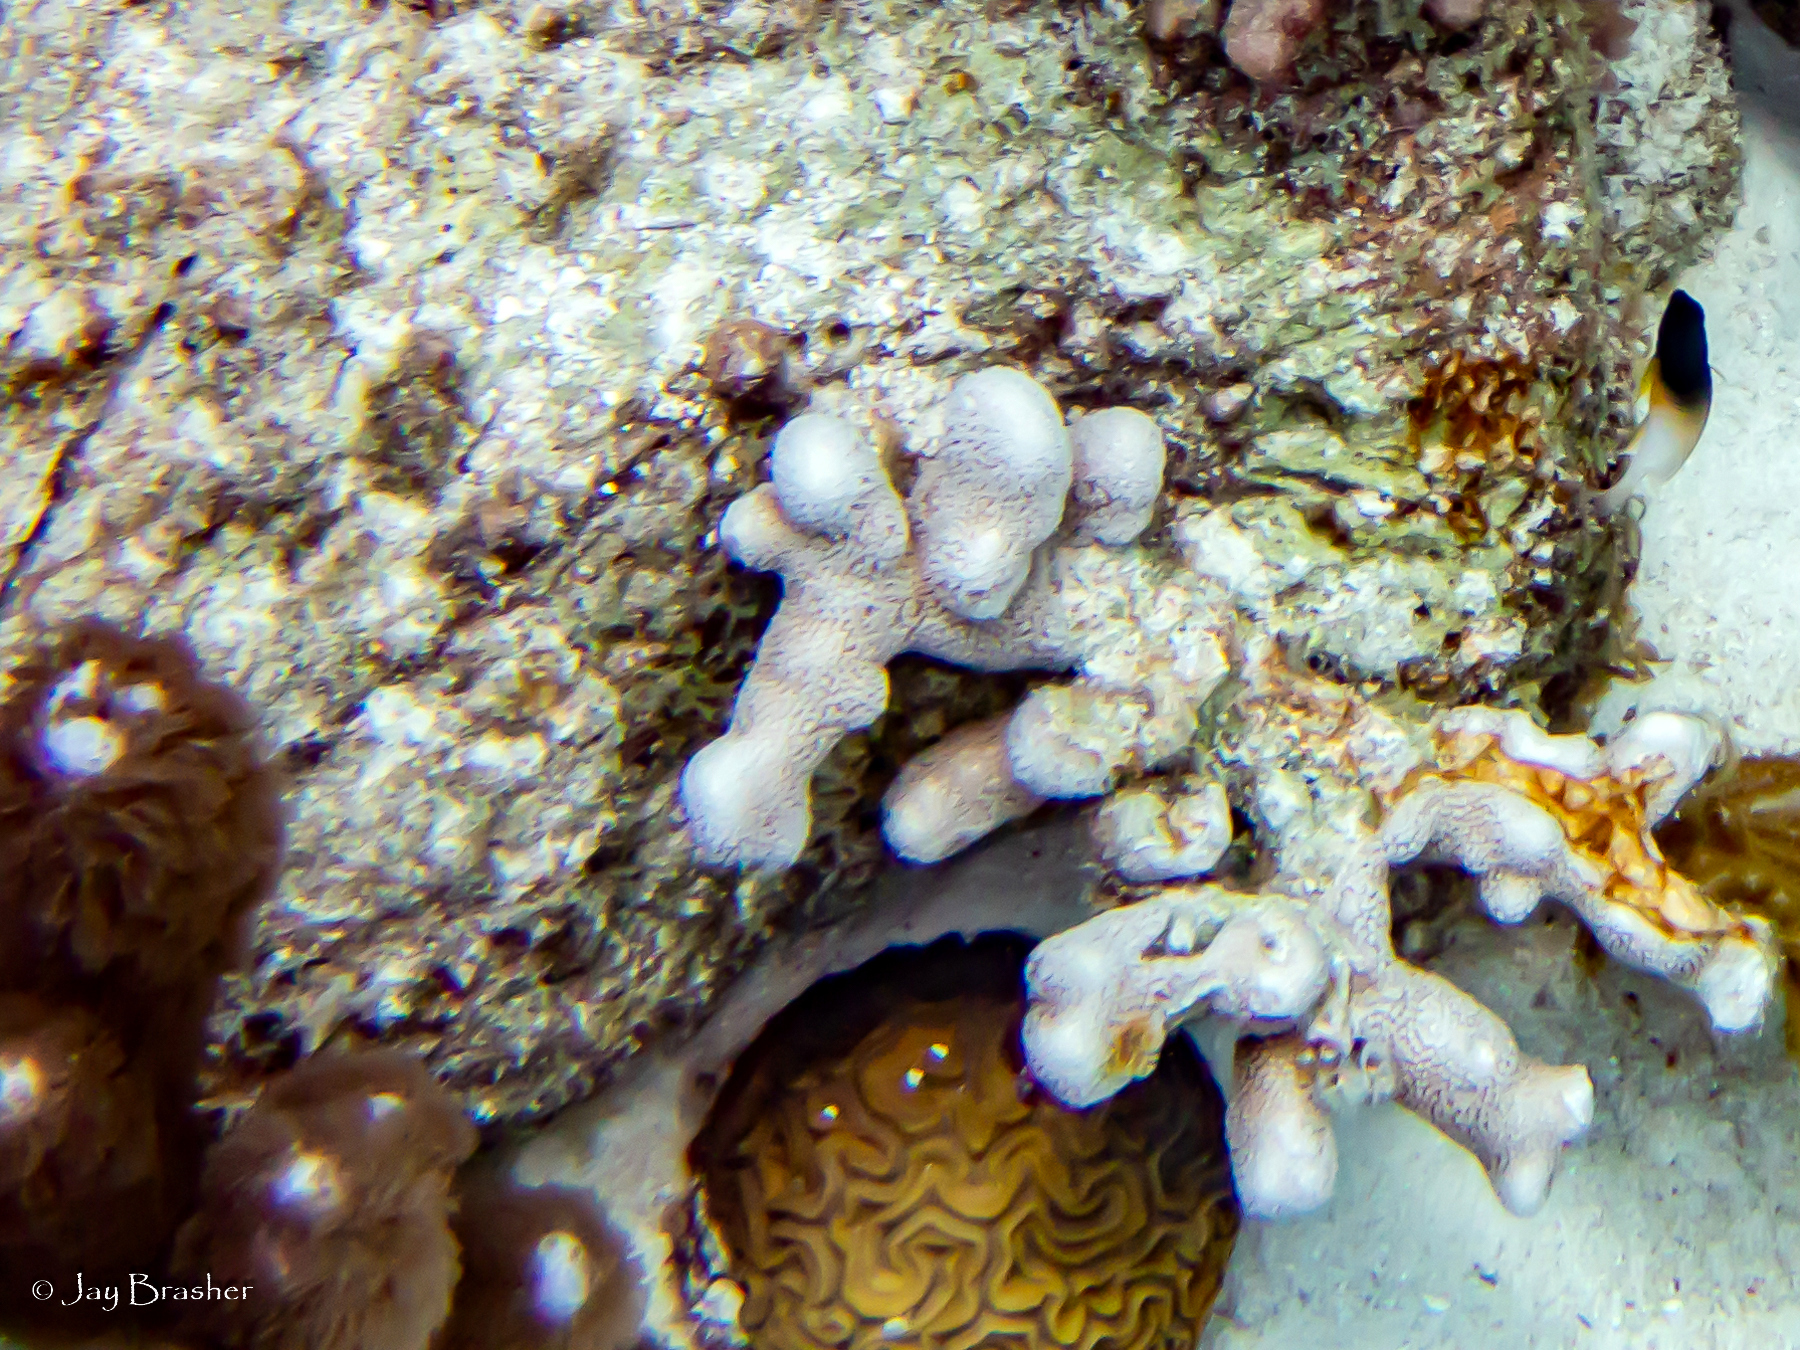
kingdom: Animalia
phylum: Chordata
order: Perciformes
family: Pomacentridae
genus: Stegastes
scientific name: Stegastes partitus
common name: Bicolor damselfish
